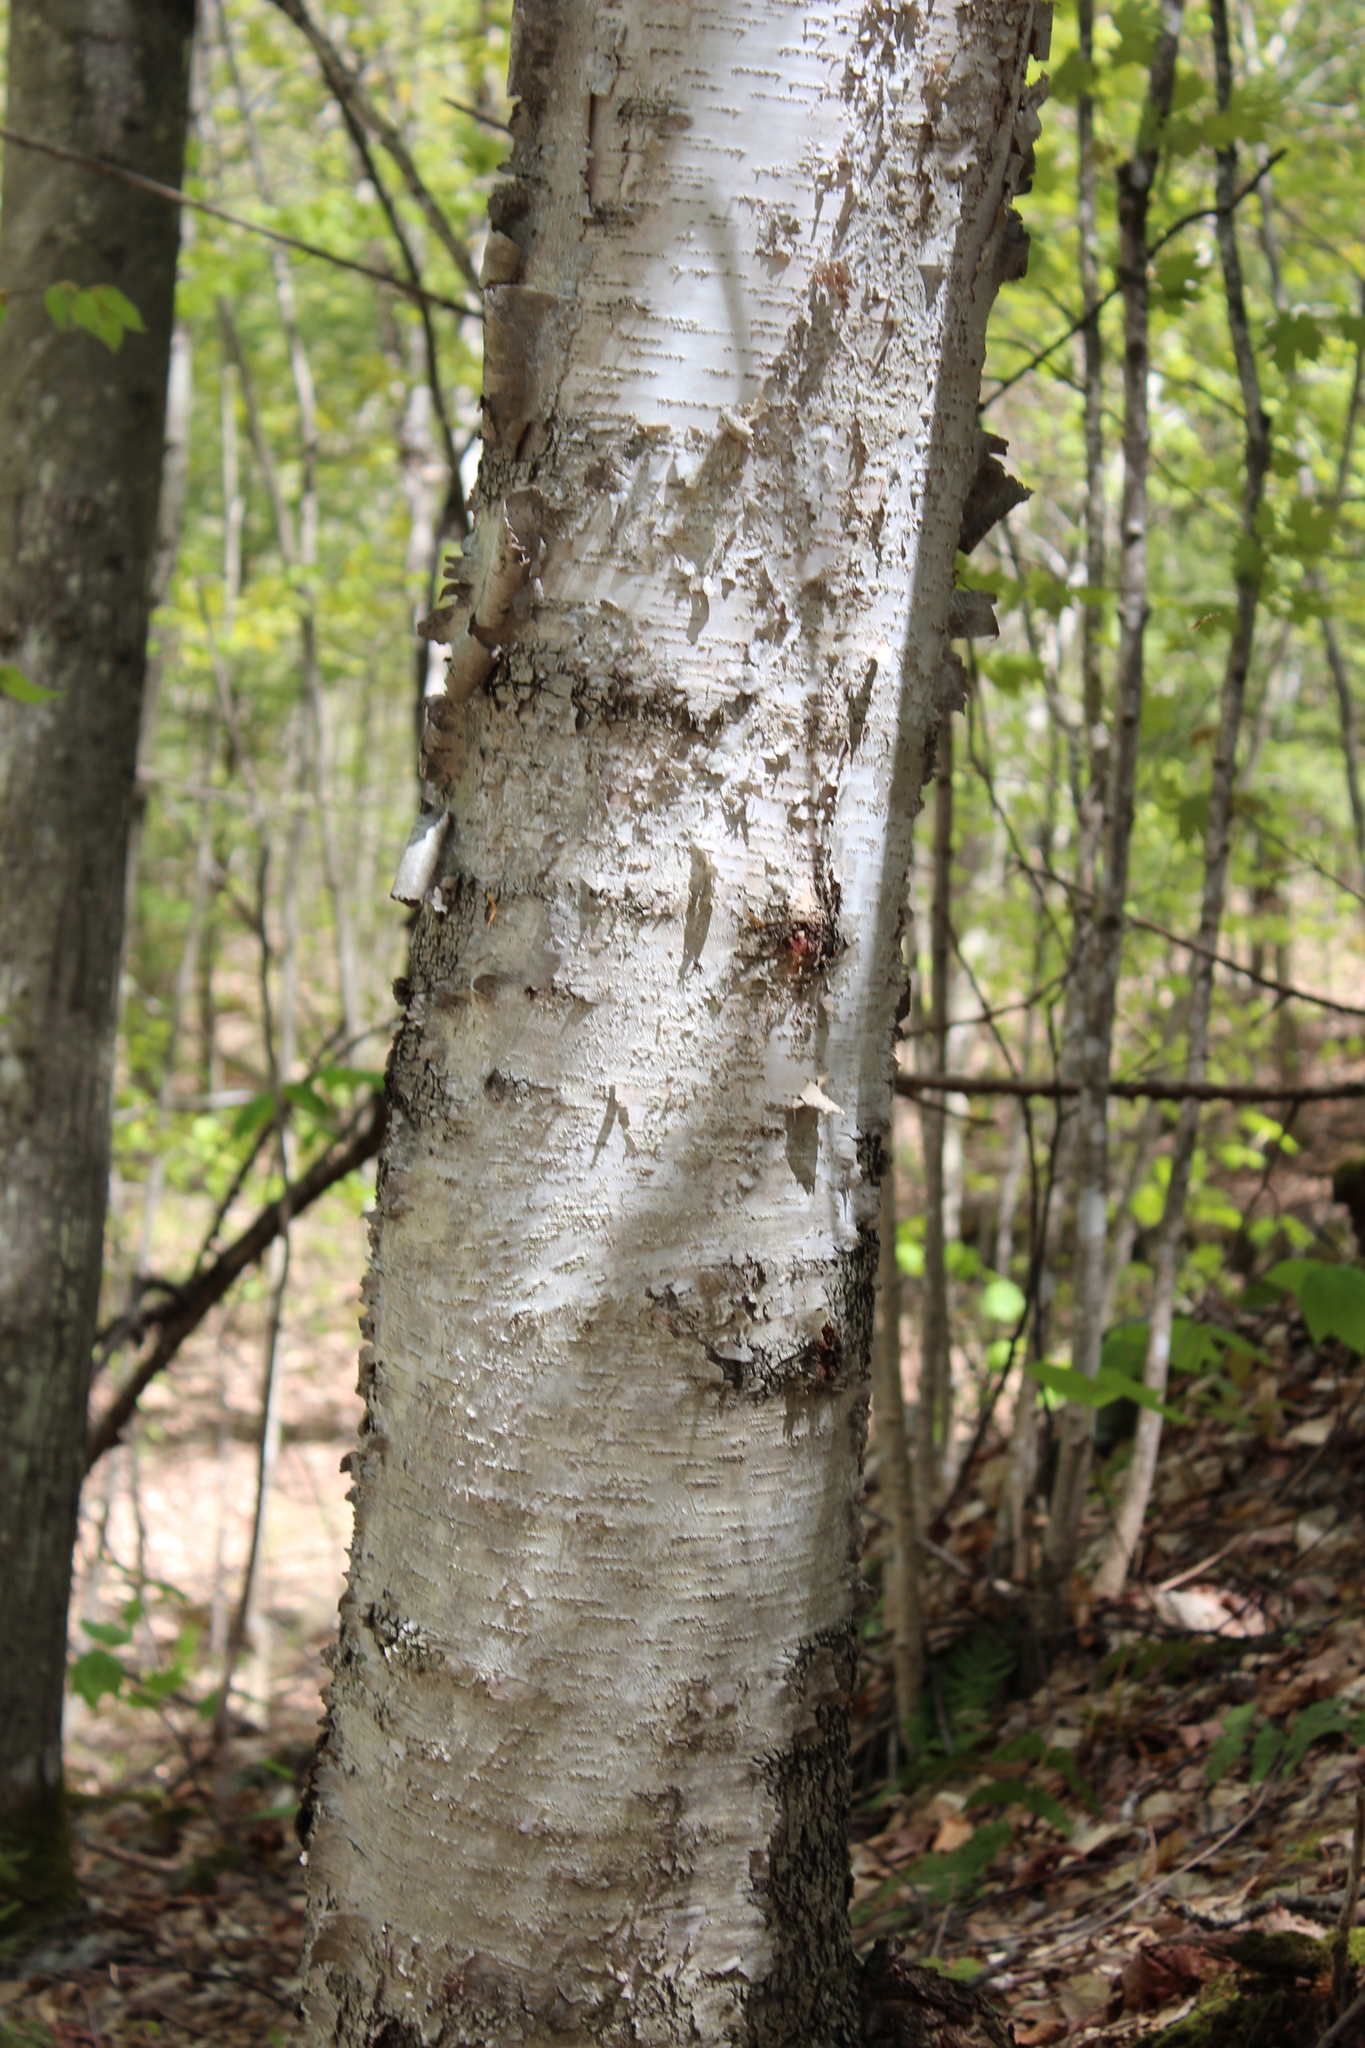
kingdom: Plantae
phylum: Tracheophyta
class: Magnoliopsida
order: Fagales
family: Betulaceae
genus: Betula
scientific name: Betula papyrifera
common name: Paper birch
